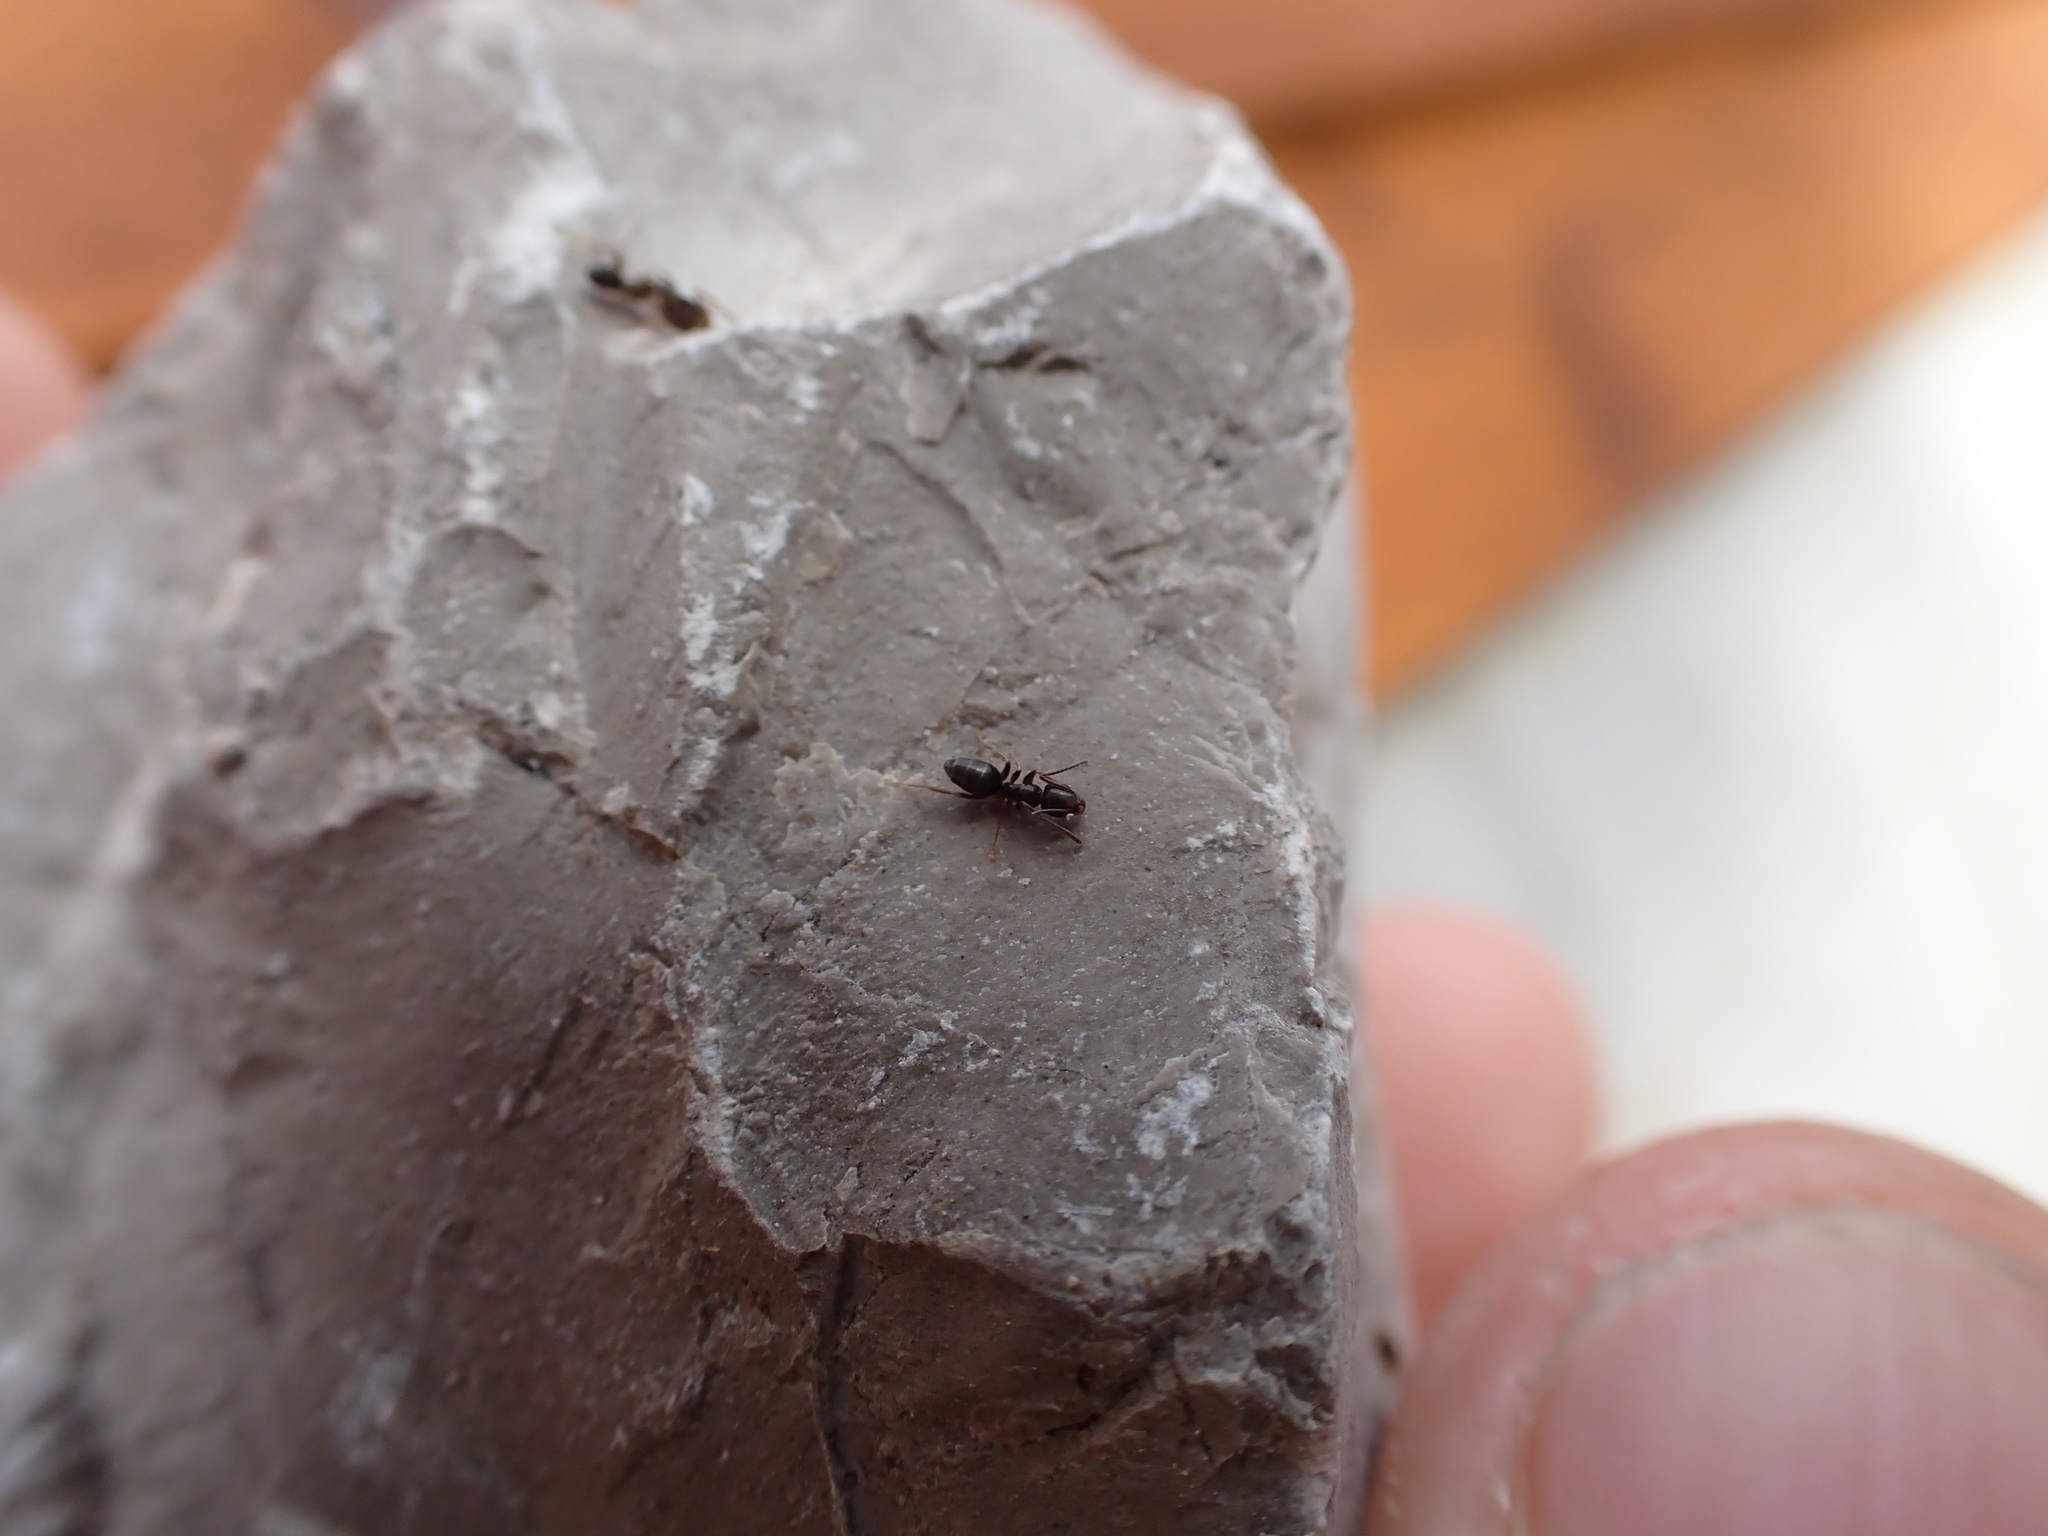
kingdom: Animalia
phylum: Arthropoda
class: Insecta
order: Hymenoptera
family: Formicidae
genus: Tapinoma
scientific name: Tapinoma sessile
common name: Odorous house ant
